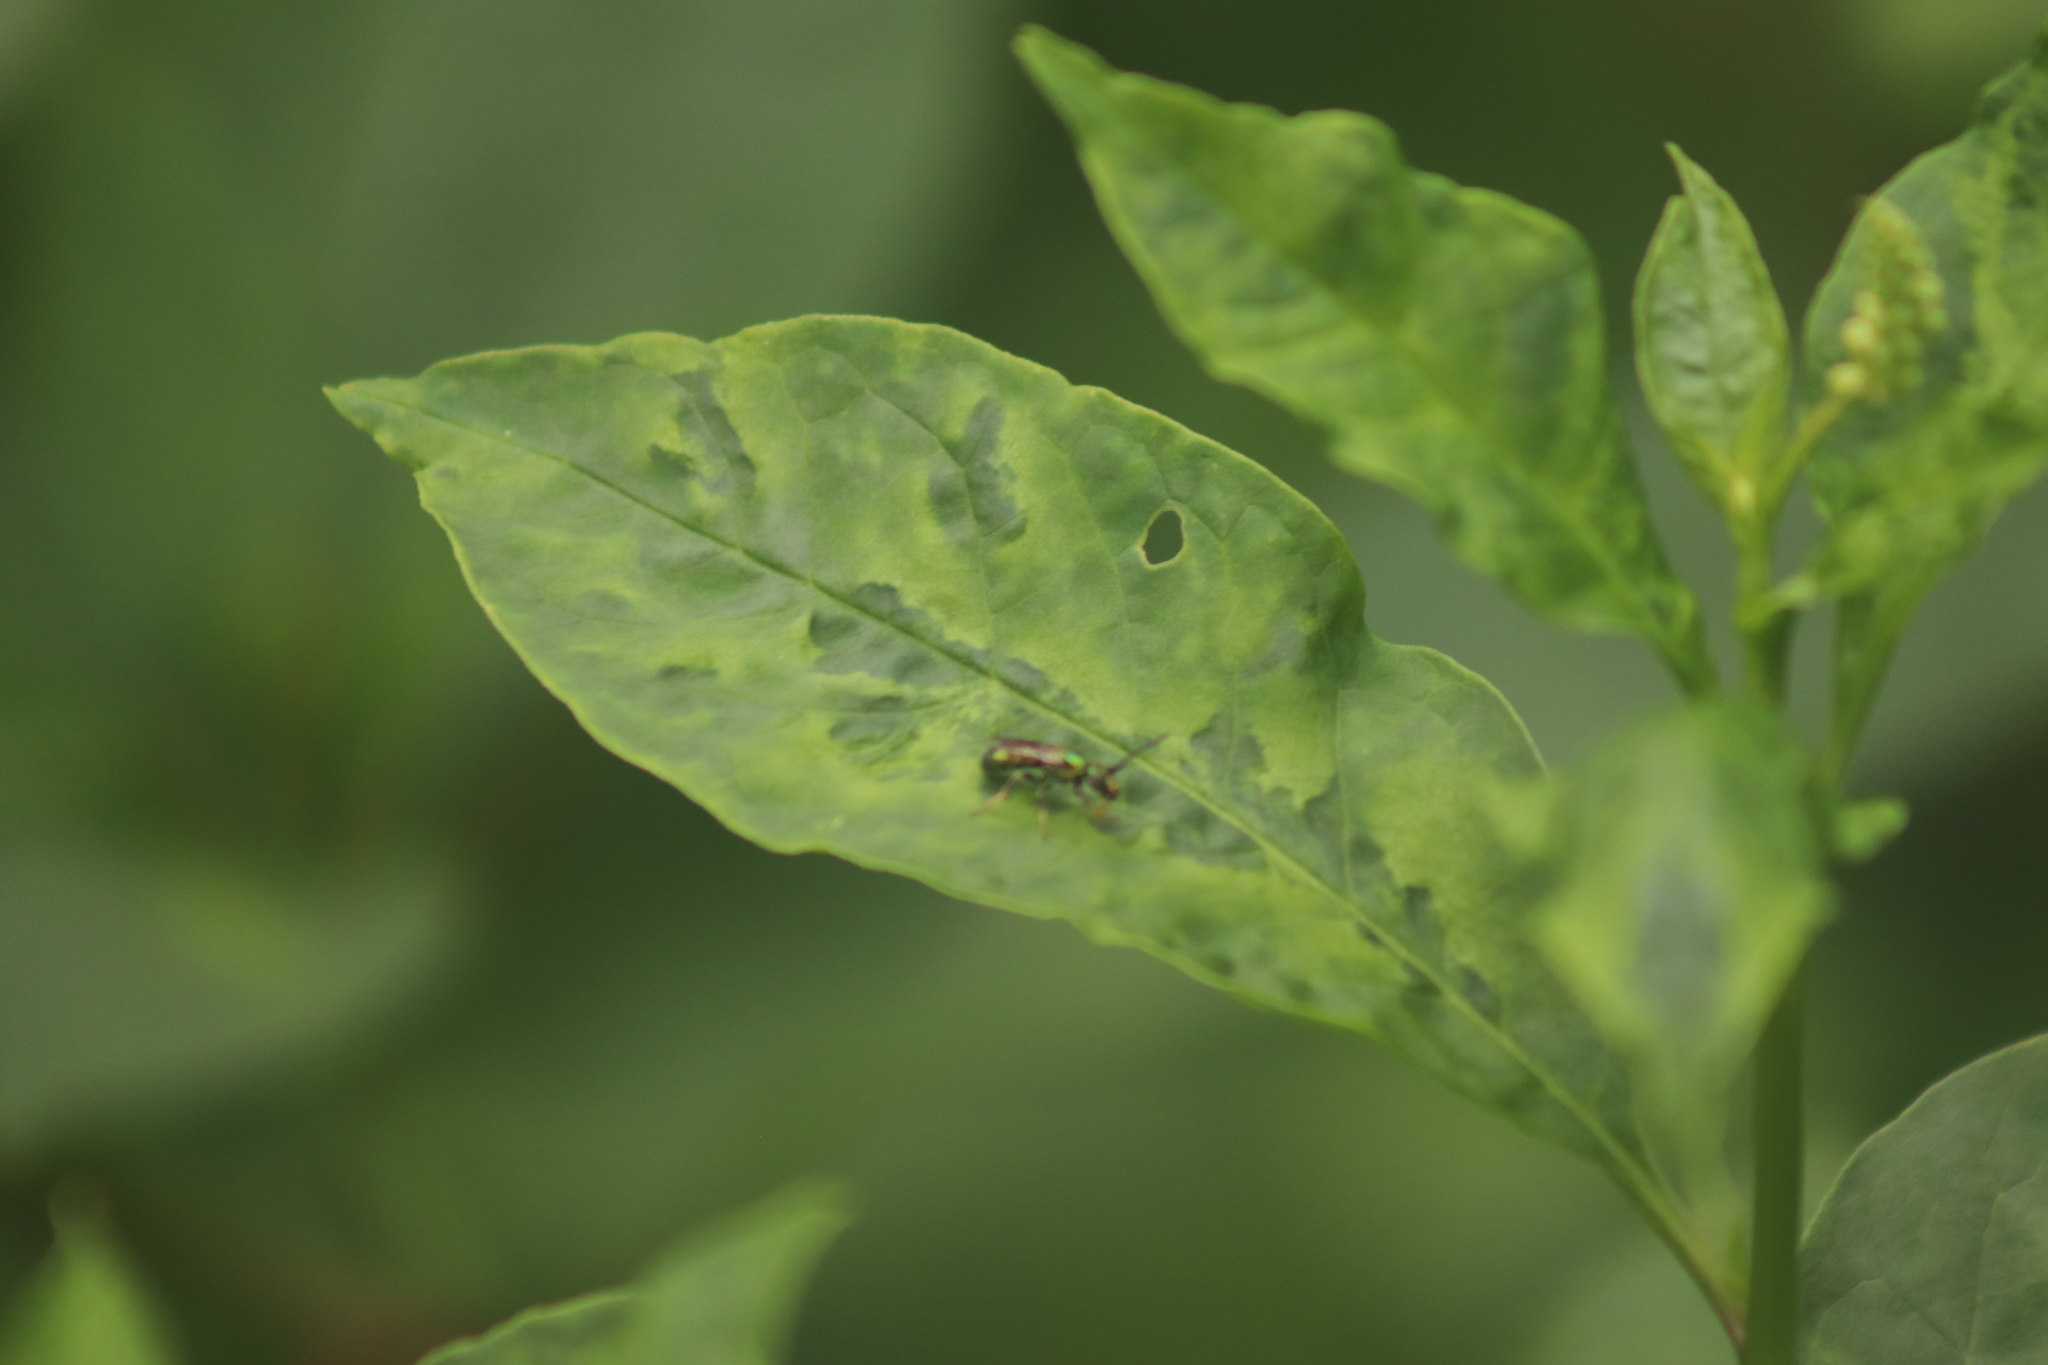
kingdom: Viruses
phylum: Pisuviricota
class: Stelpaviricetes
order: Patatavirales
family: Potyviridae
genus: Potyvirus
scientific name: Potyvirus Pokeweed mosaic virus
